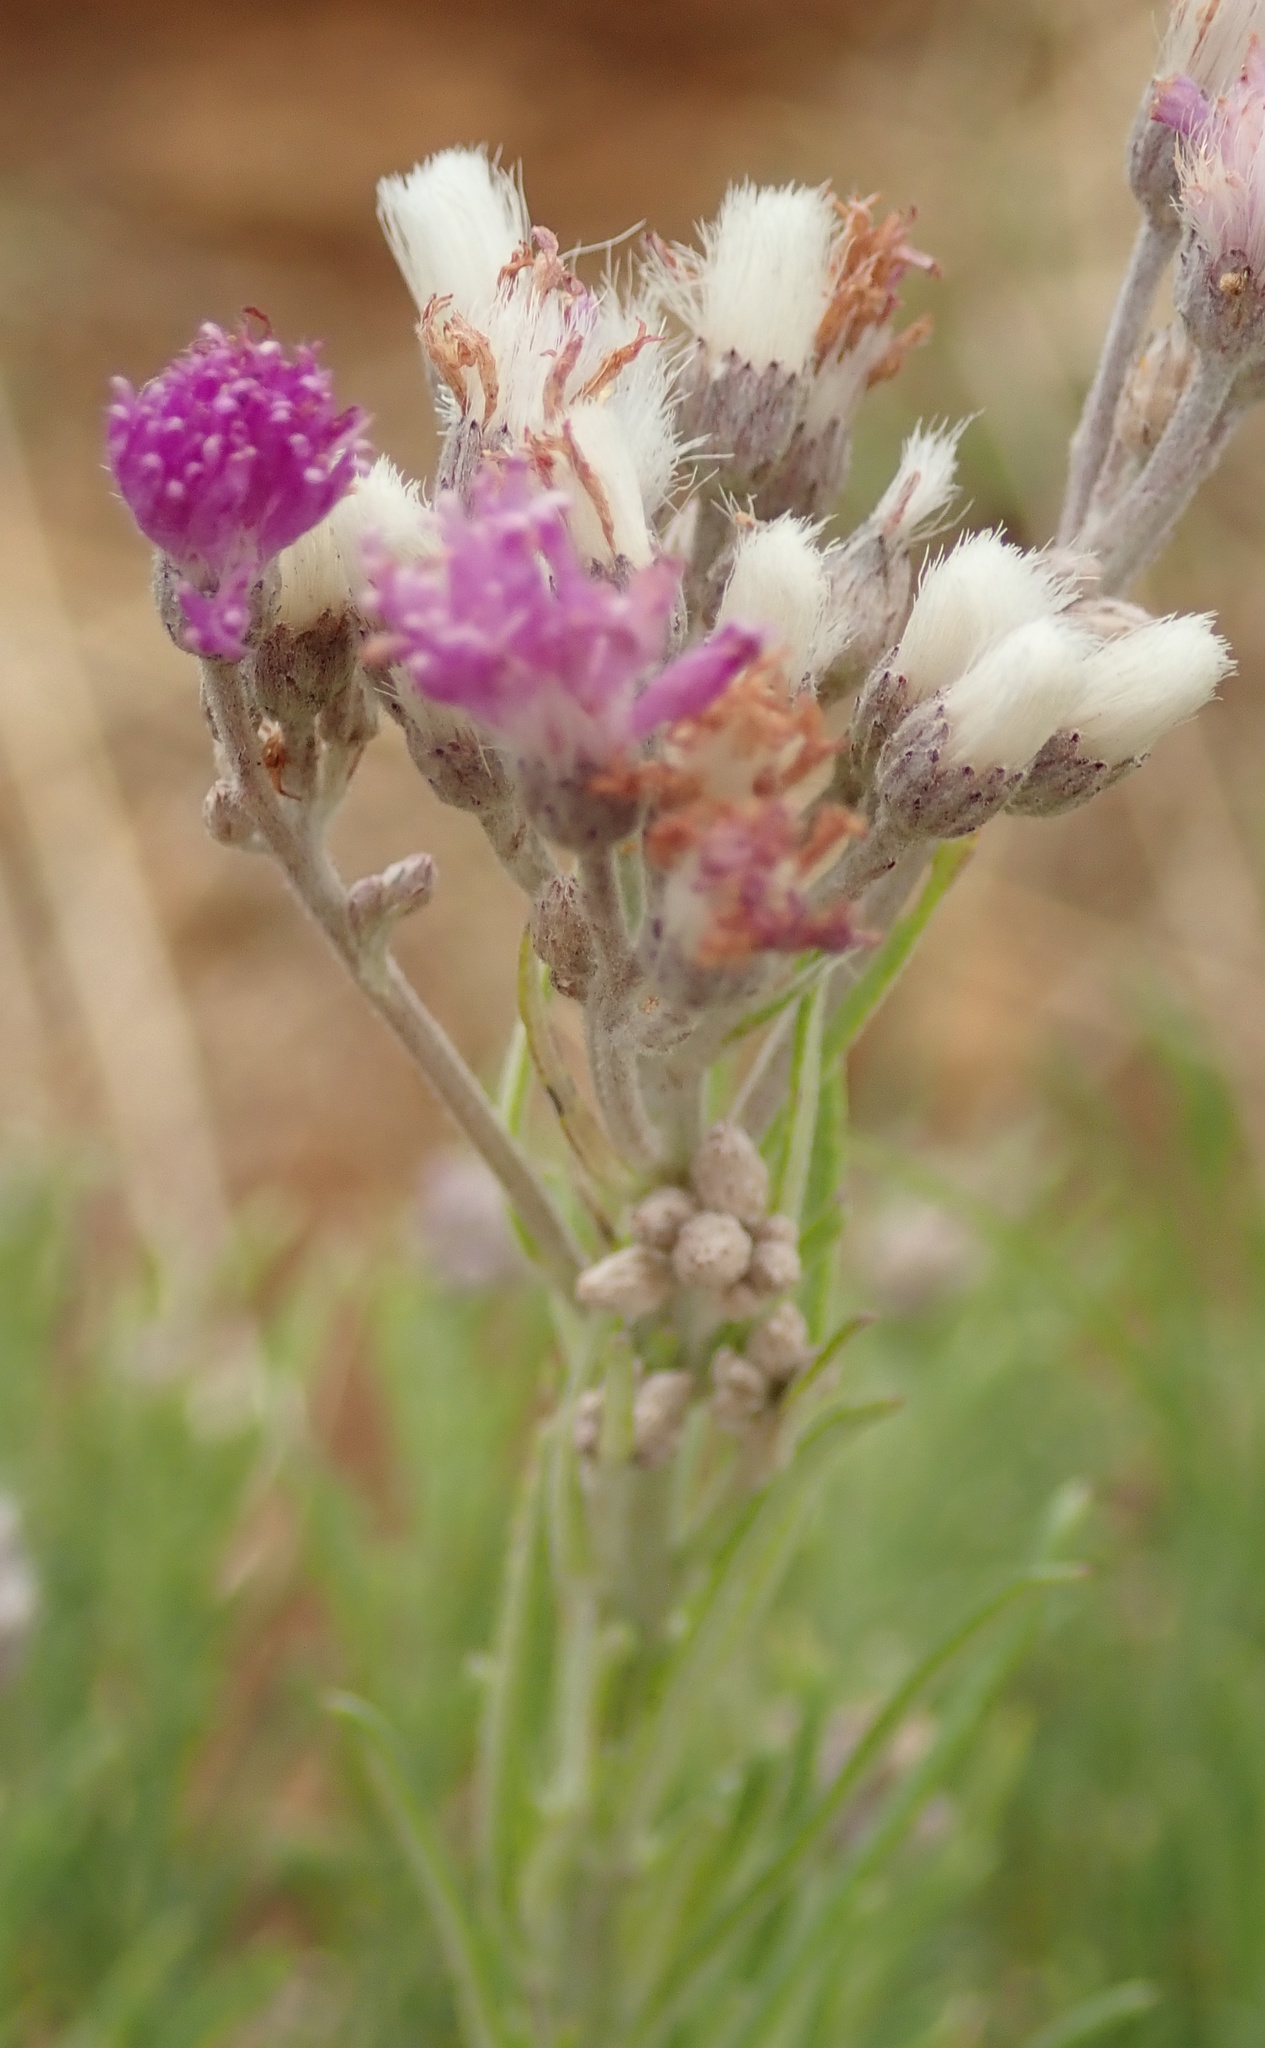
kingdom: Plantae
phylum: Tracheophyta
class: Magnoliopsida
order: Asterales
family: Asteraceae
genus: Hilliardiella
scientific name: Hilliardiella capensis
